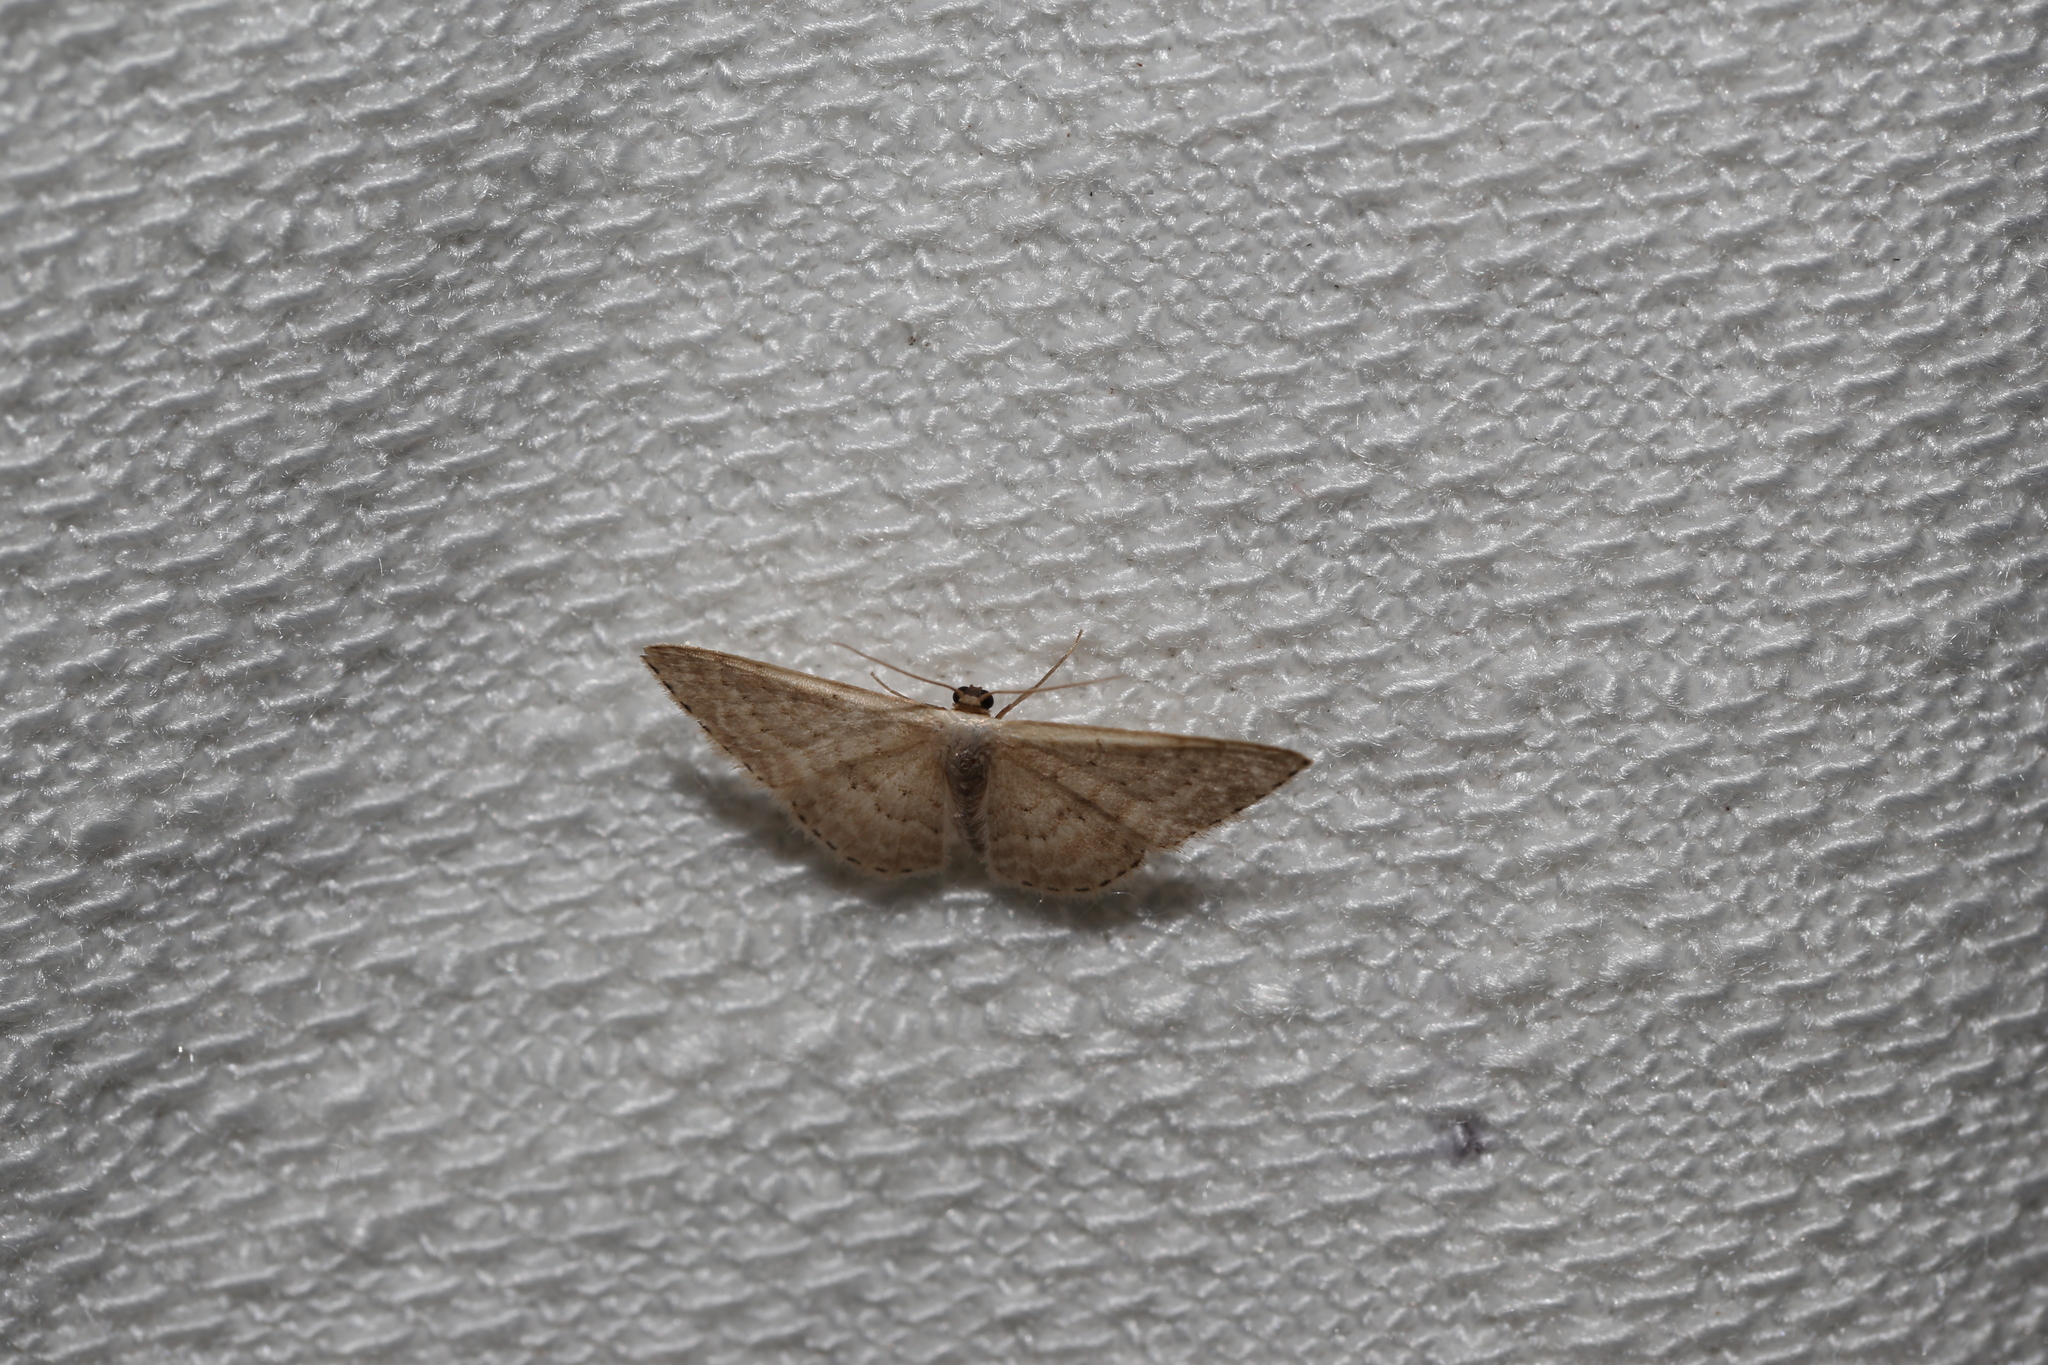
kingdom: Animalia
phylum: Arthropoda
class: Insecta
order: Lepidoptera
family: Geometridae
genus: Idaea
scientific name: Idaea eretmopus
